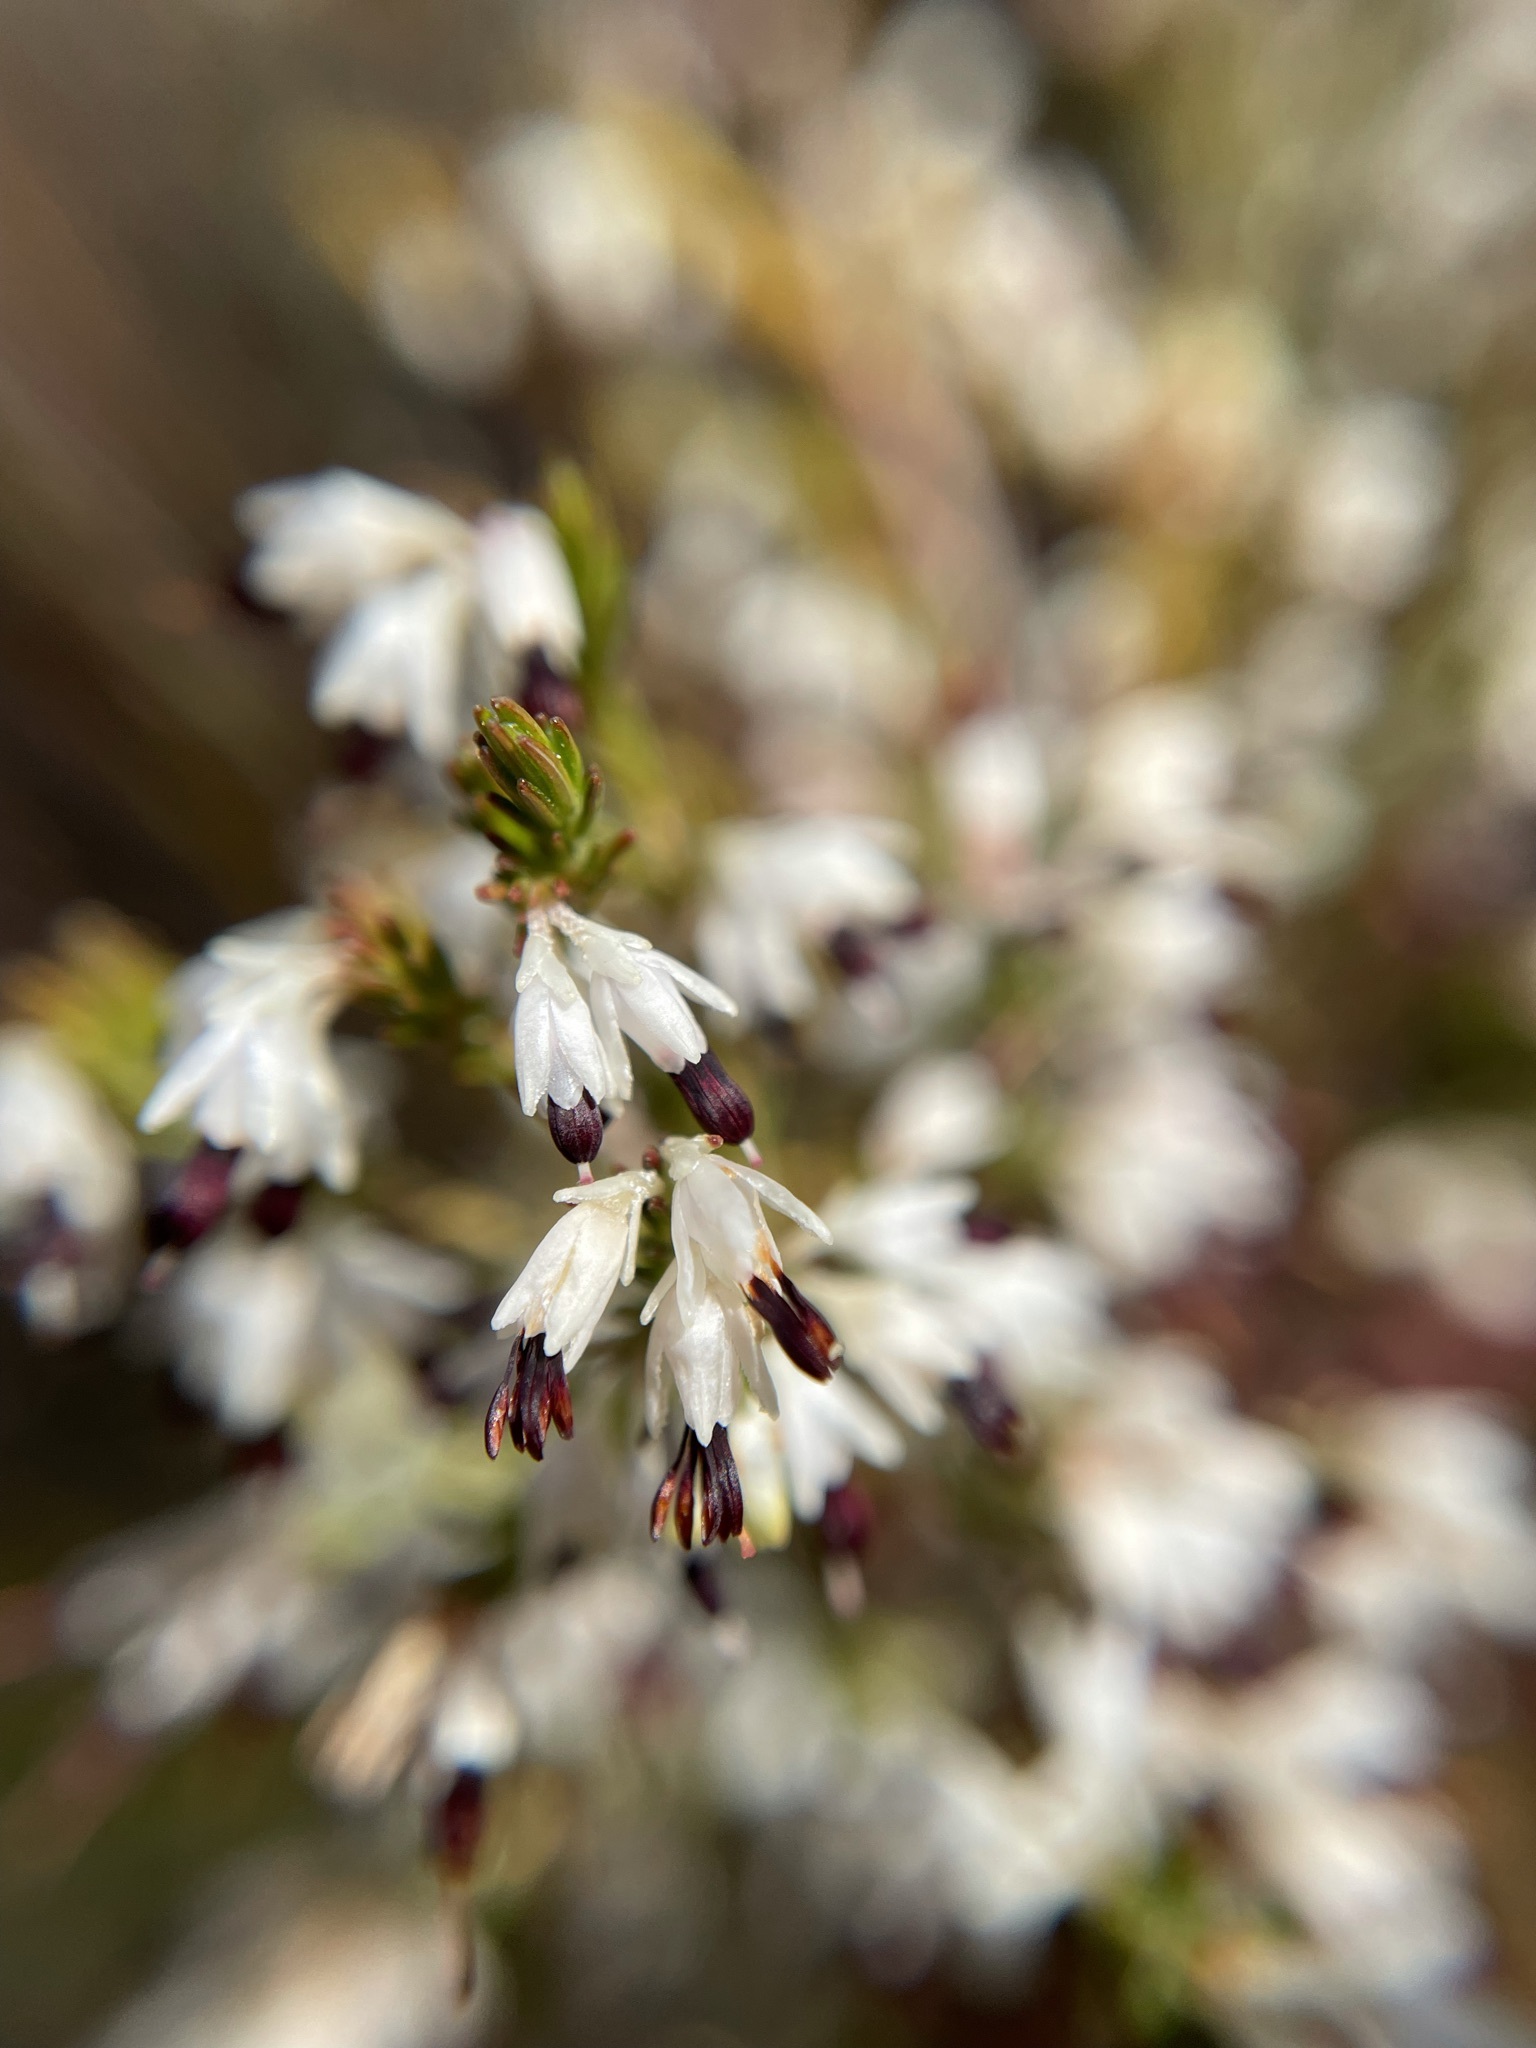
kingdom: Plantae
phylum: Tracheophyta
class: Magnoliopsida
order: Ericales
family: Ericaceae
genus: Erica
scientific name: Erica imbricata
